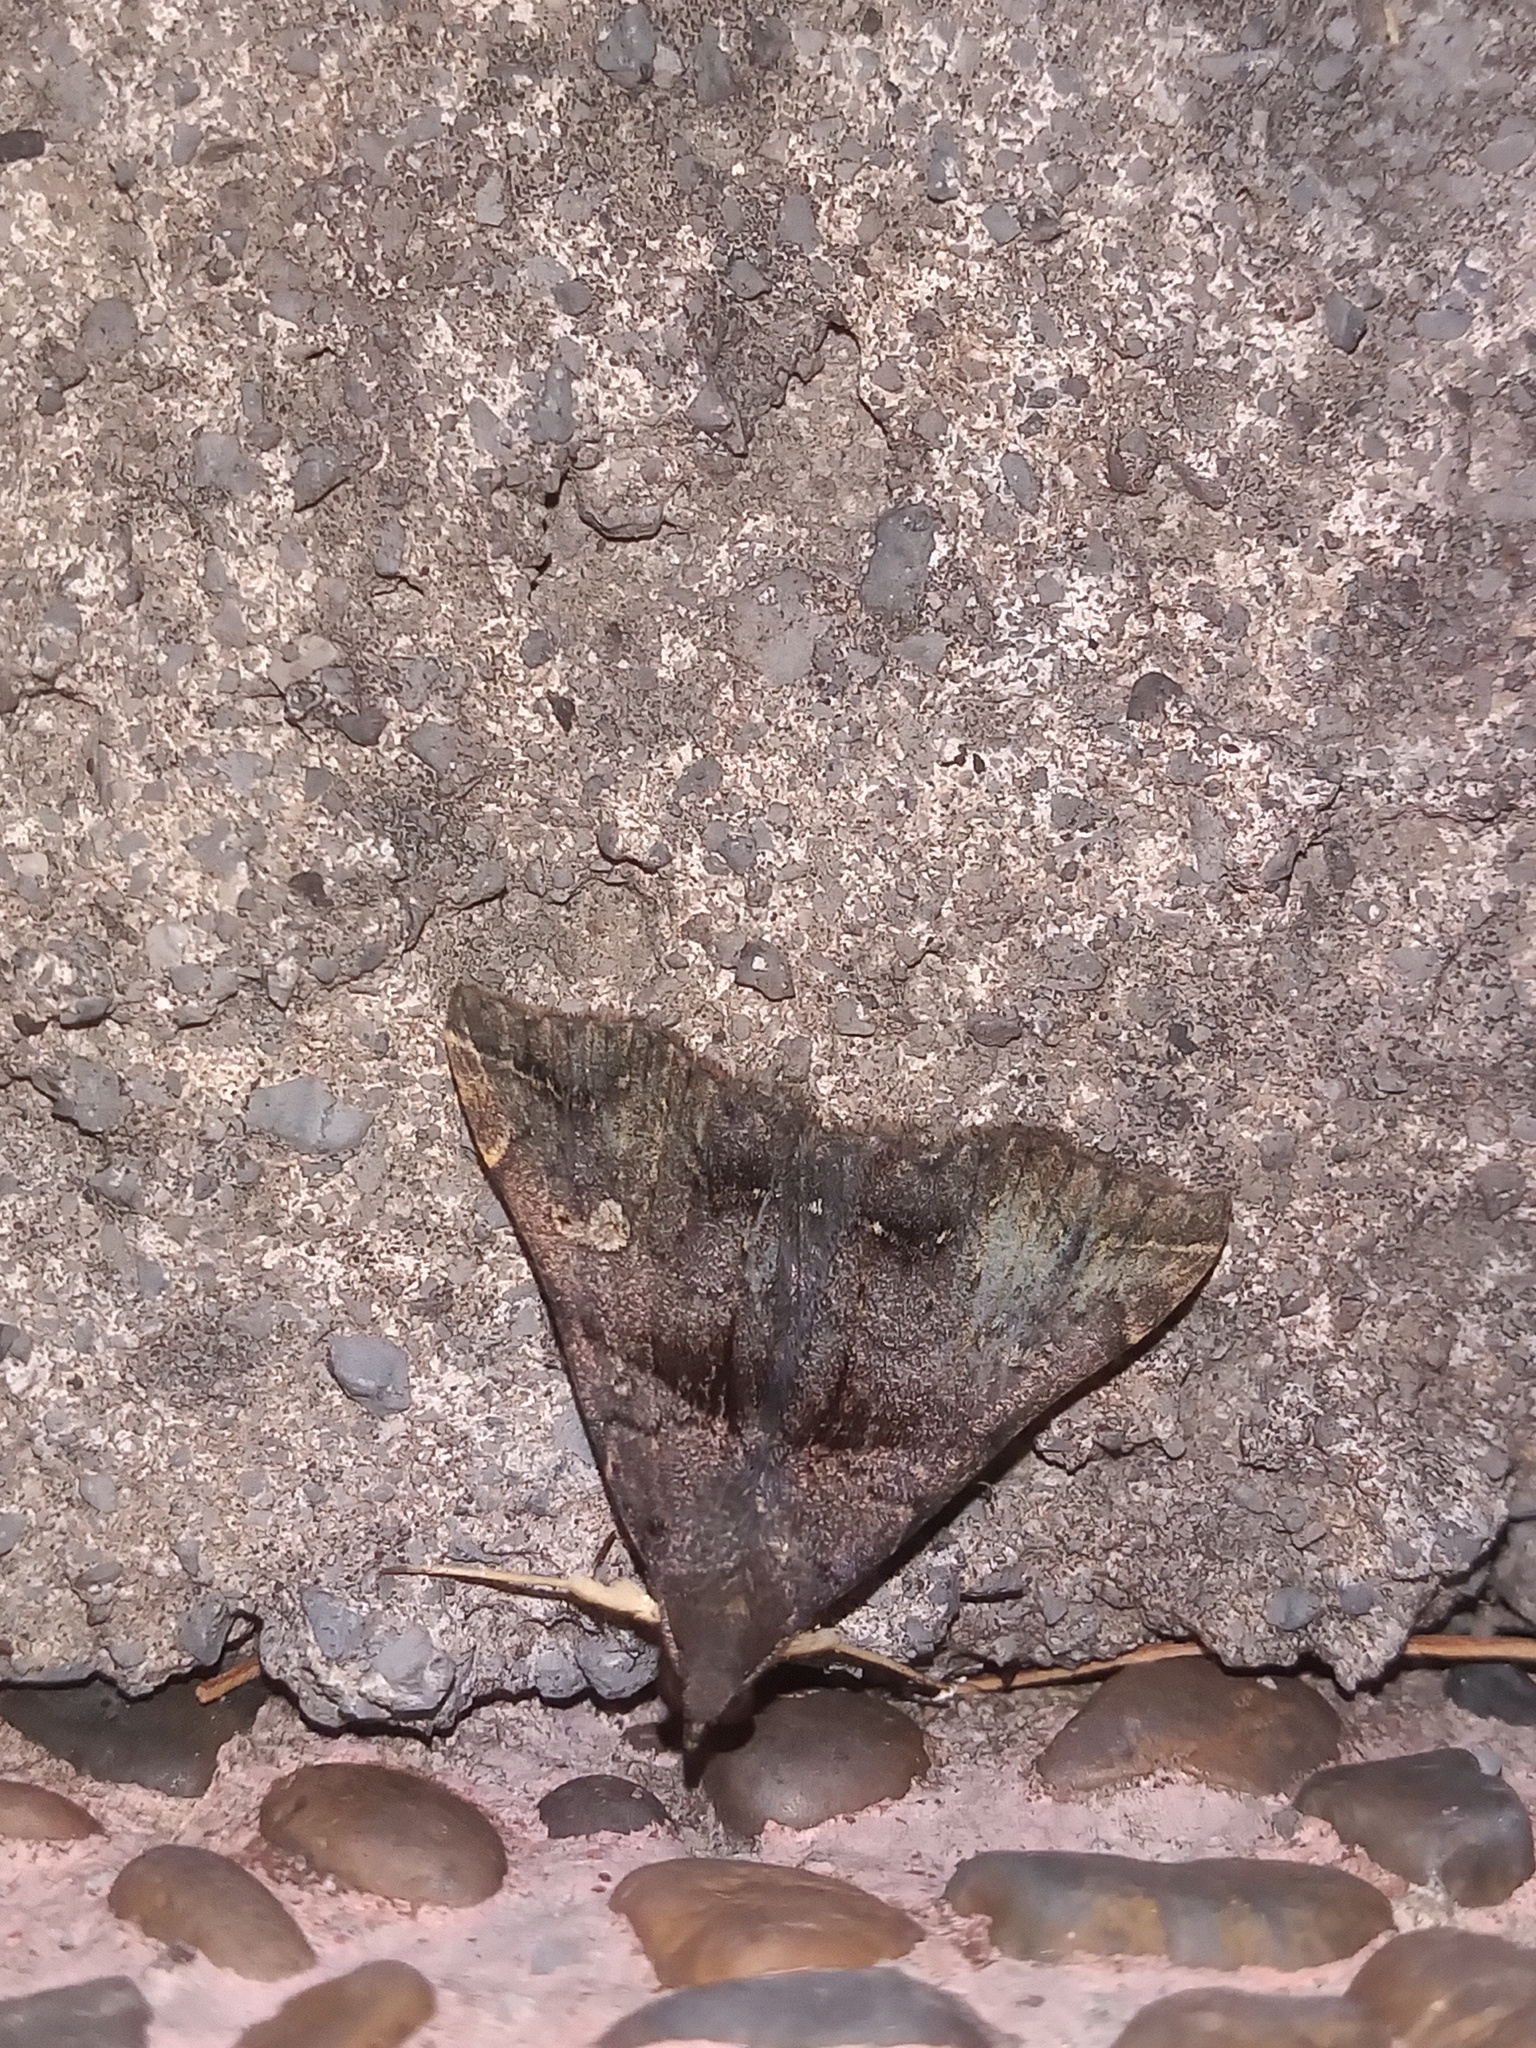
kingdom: Animalia
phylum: Arthropoda
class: Insecta
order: Lepidoptera
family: Erebidae
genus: Lascoria
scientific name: Lascoria ambigualis
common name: Ambiguous moth
